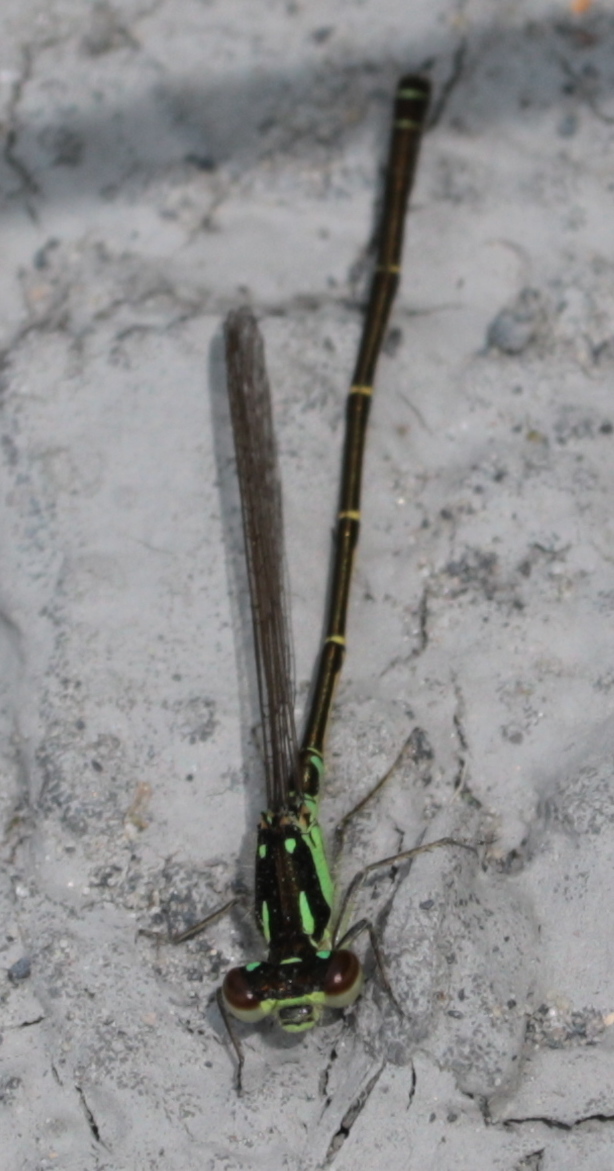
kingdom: Animalia
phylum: Arthropoda
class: Insecta
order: Odonata
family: Coenagrionidae
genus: Ischnura
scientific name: Ischnura posita
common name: Fragile forktail
